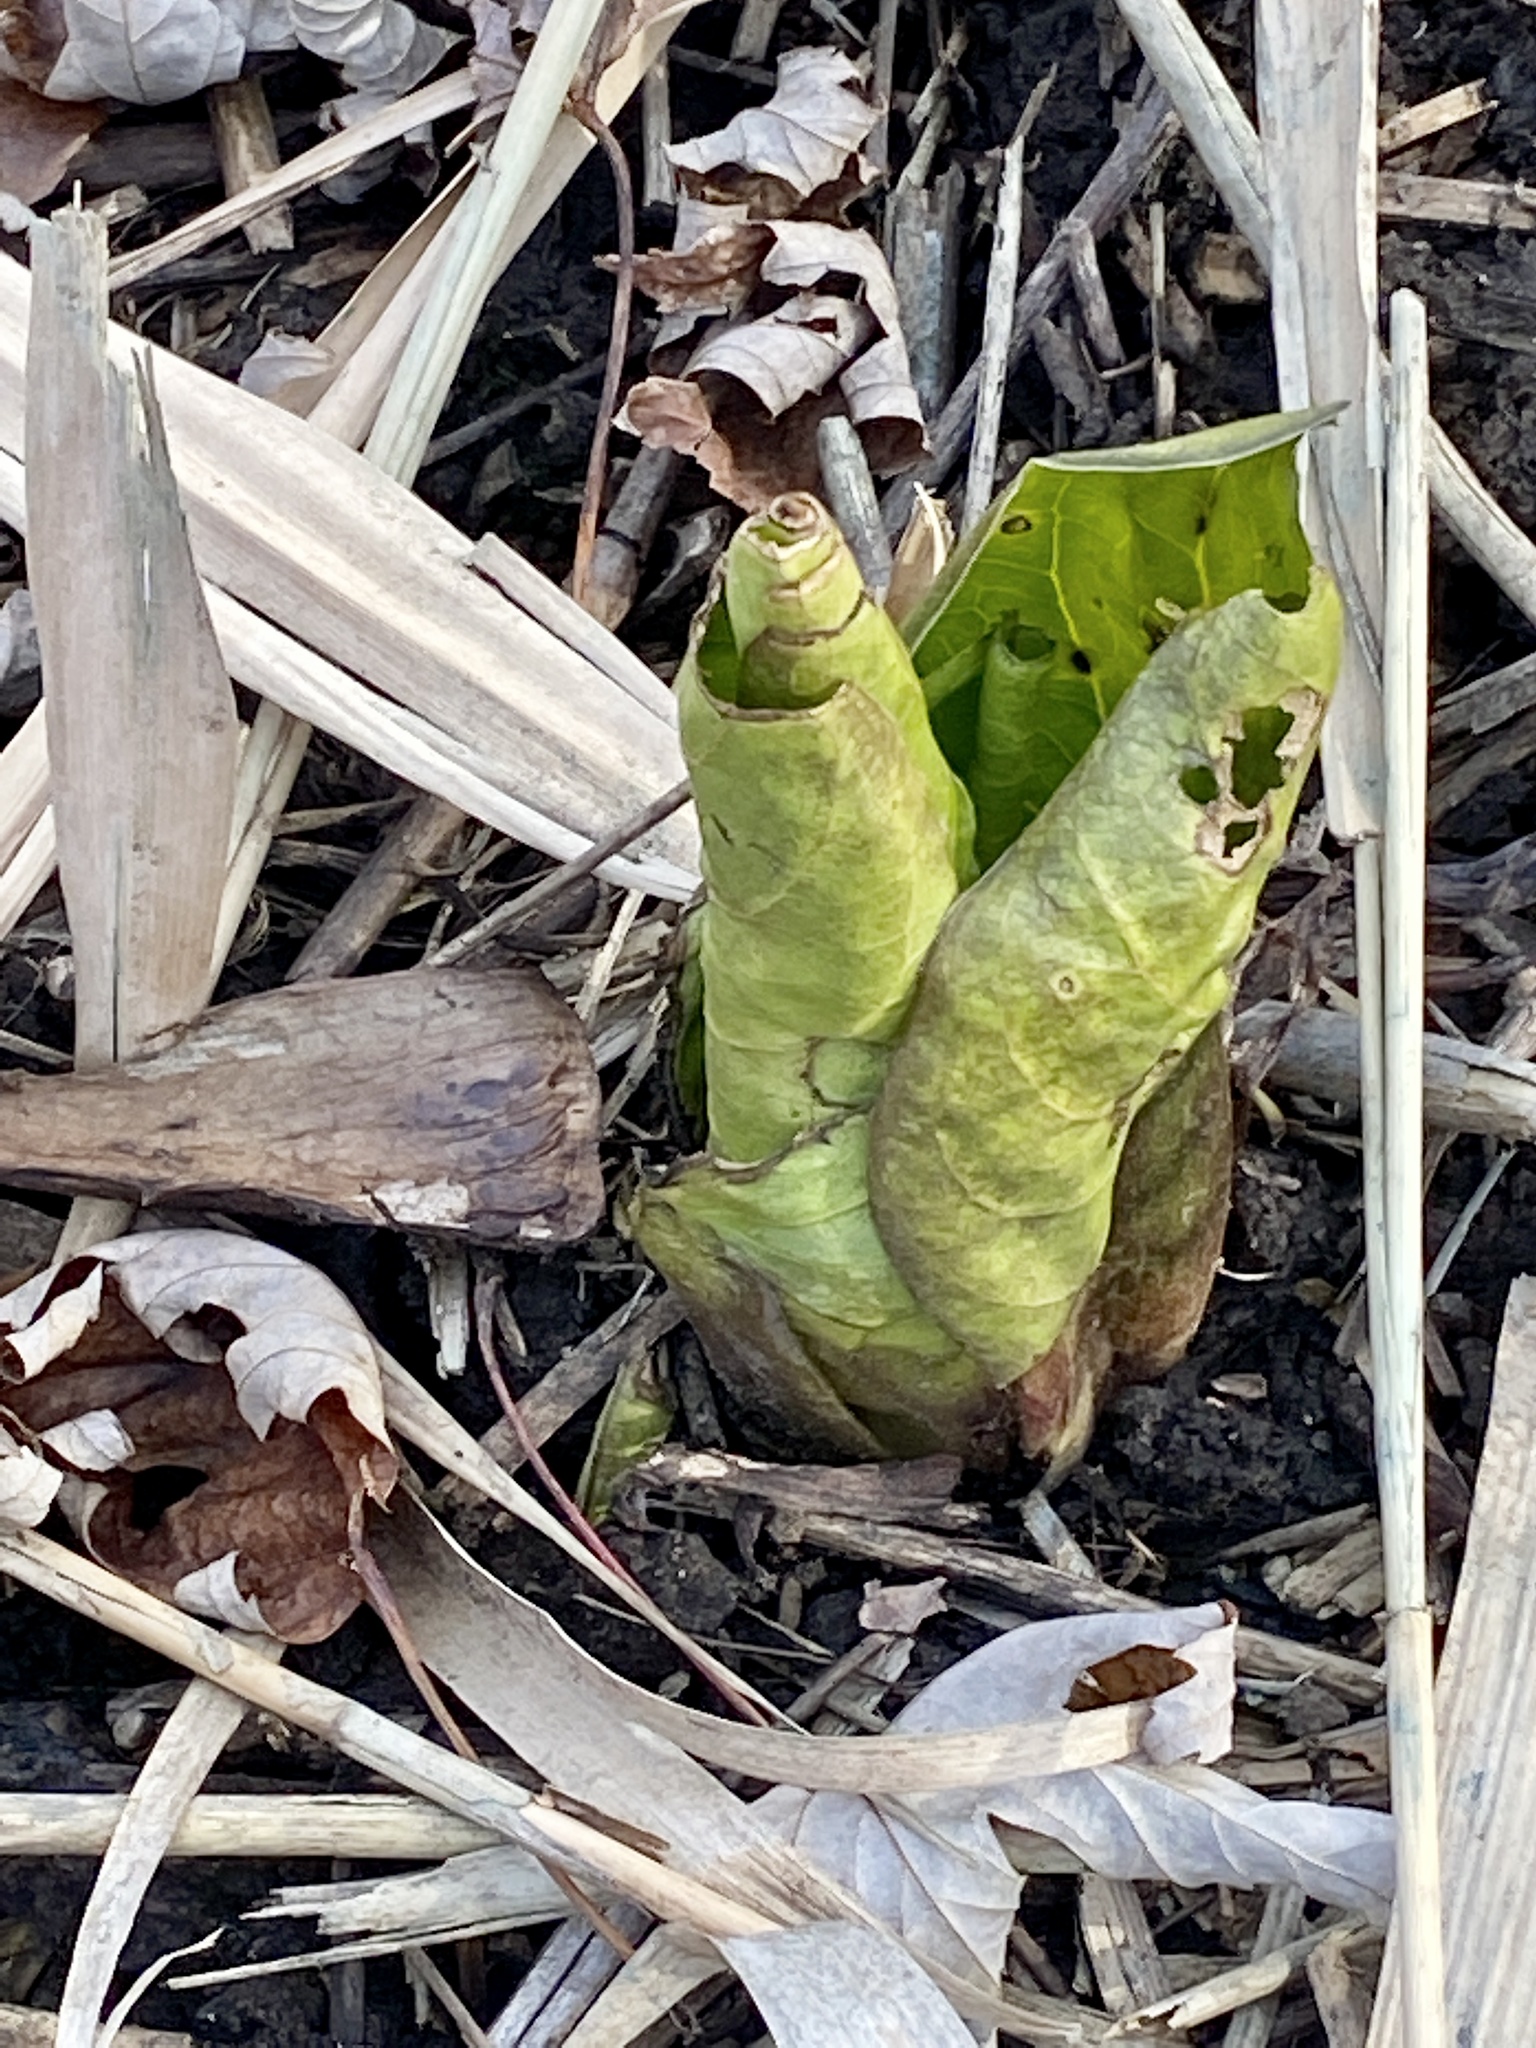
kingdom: Plantae
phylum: Tracheophyta
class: Liliopsida
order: Alismatales
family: Araceae
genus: Symplocarpus
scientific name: Symplocarpus foetidus
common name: Eastern skunk cabbage
